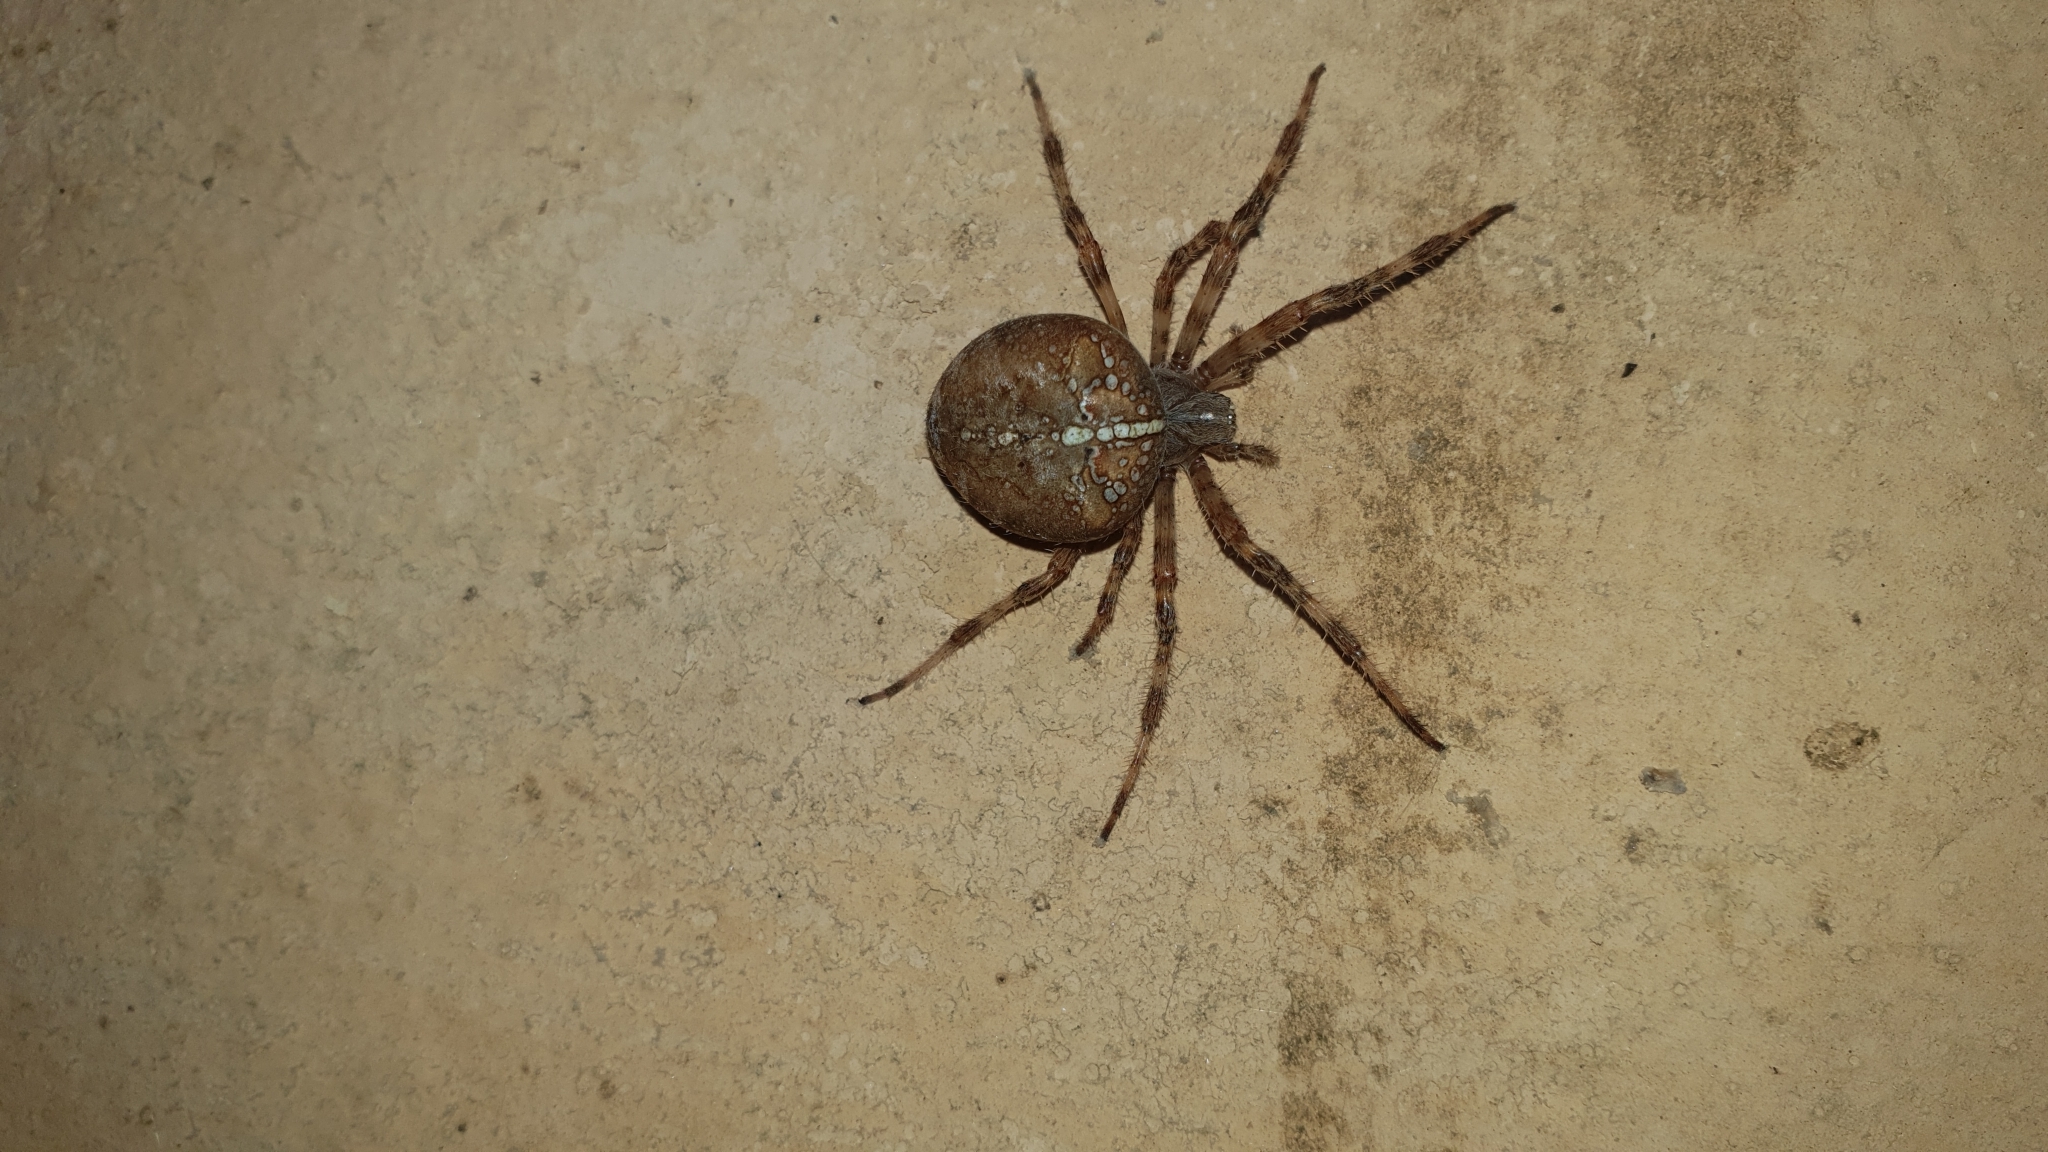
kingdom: Animalia
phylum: Arthropoda
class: Arachnida
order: Araneae
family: Araneidae
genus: Araneus
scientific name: Araneus diadematus
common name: Cross orbweaver
